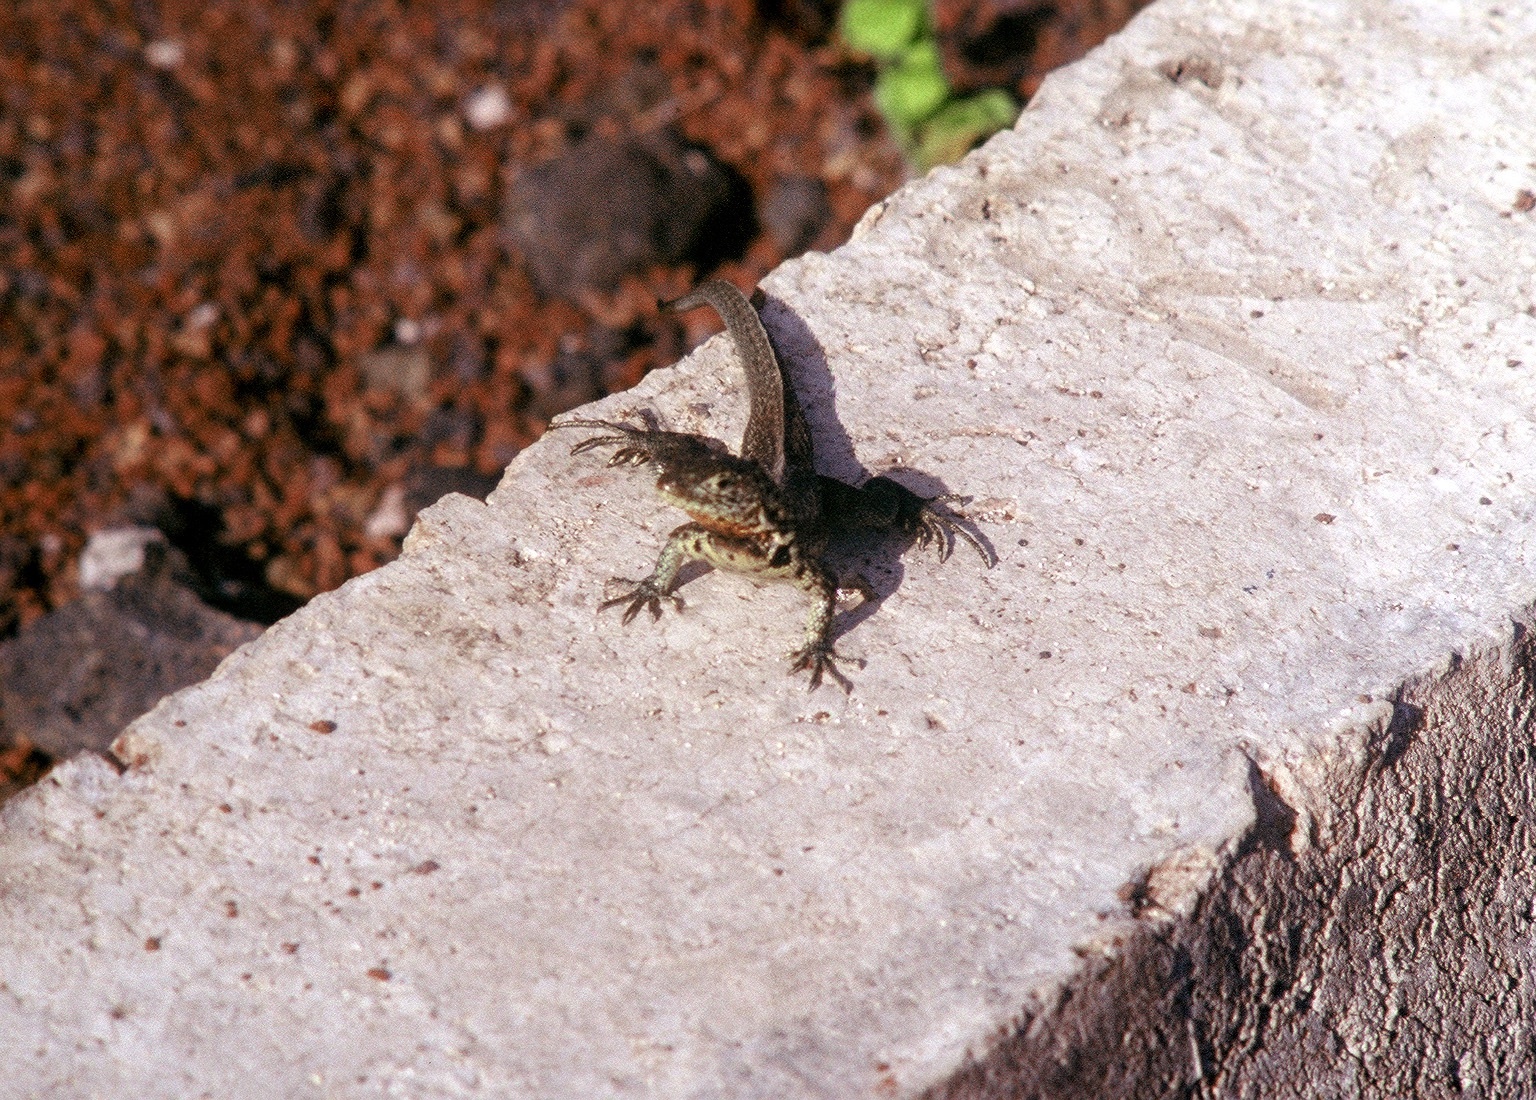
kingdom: Animalia
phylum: Chordata
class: Squamata
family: Tropiduridae
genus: Microlophus
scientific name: Microlophus indefatigabilis
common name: Galapagos lava lizard
